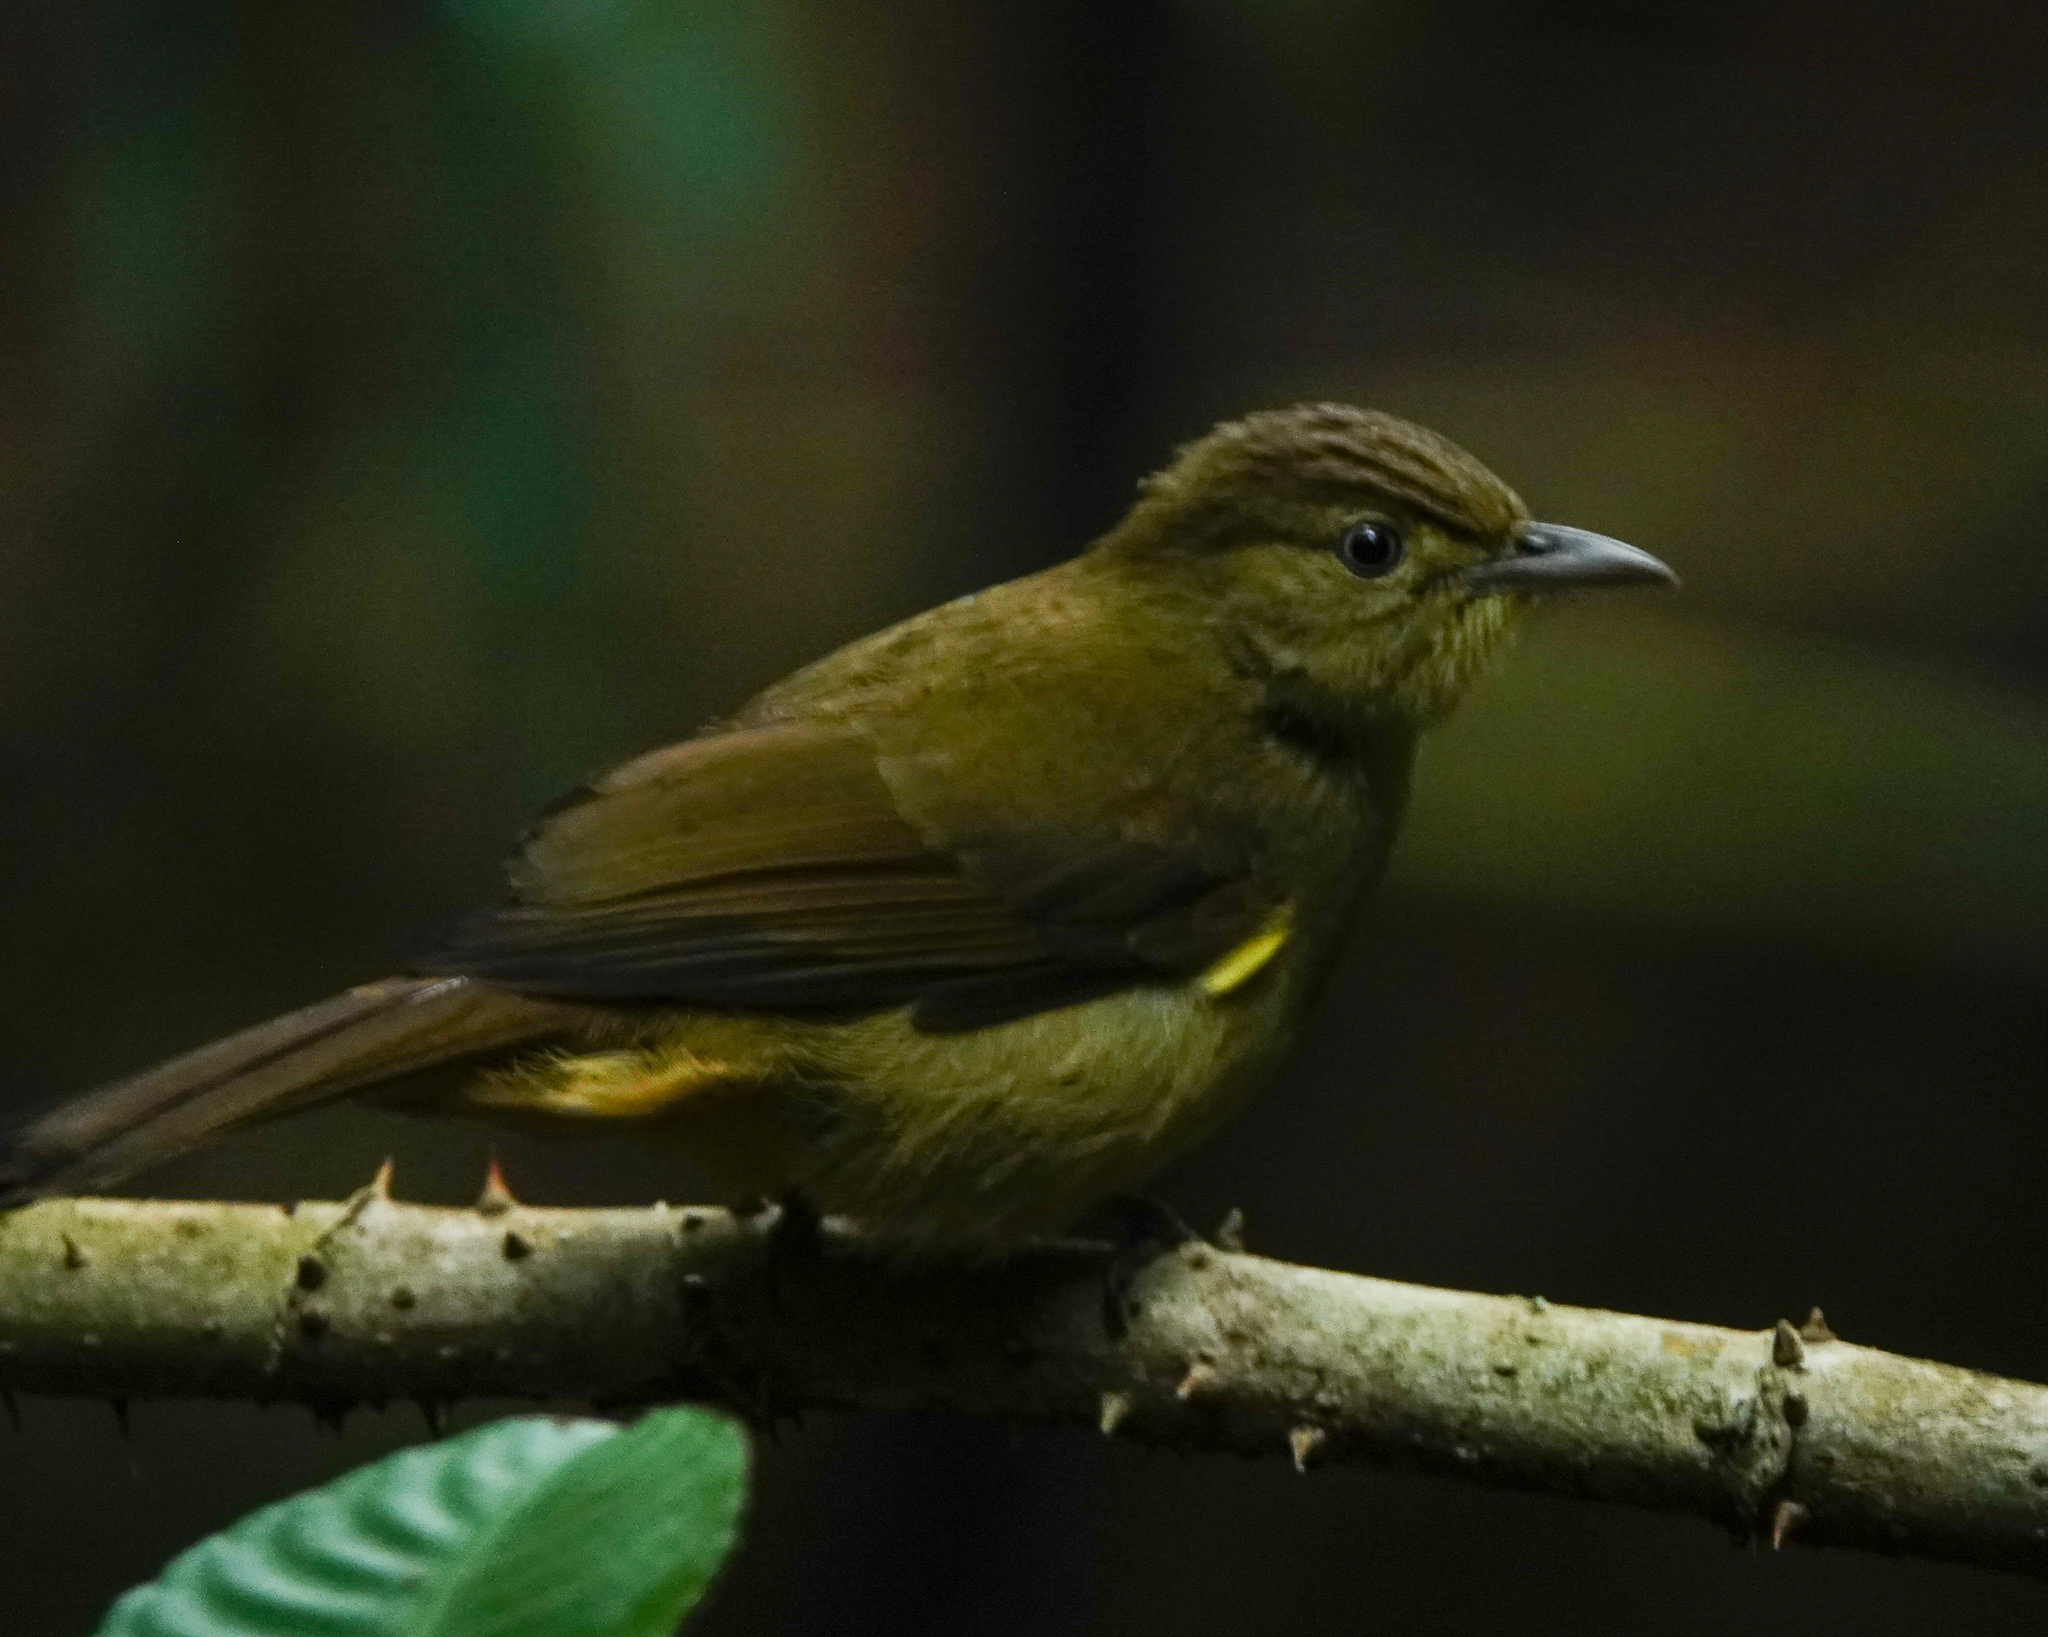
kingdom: Animalia
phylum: Chordata
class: Aves
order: Passeriformes
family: Pycnonotidae
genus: Iole
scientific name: Iole virescens
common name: Olive bulbul
